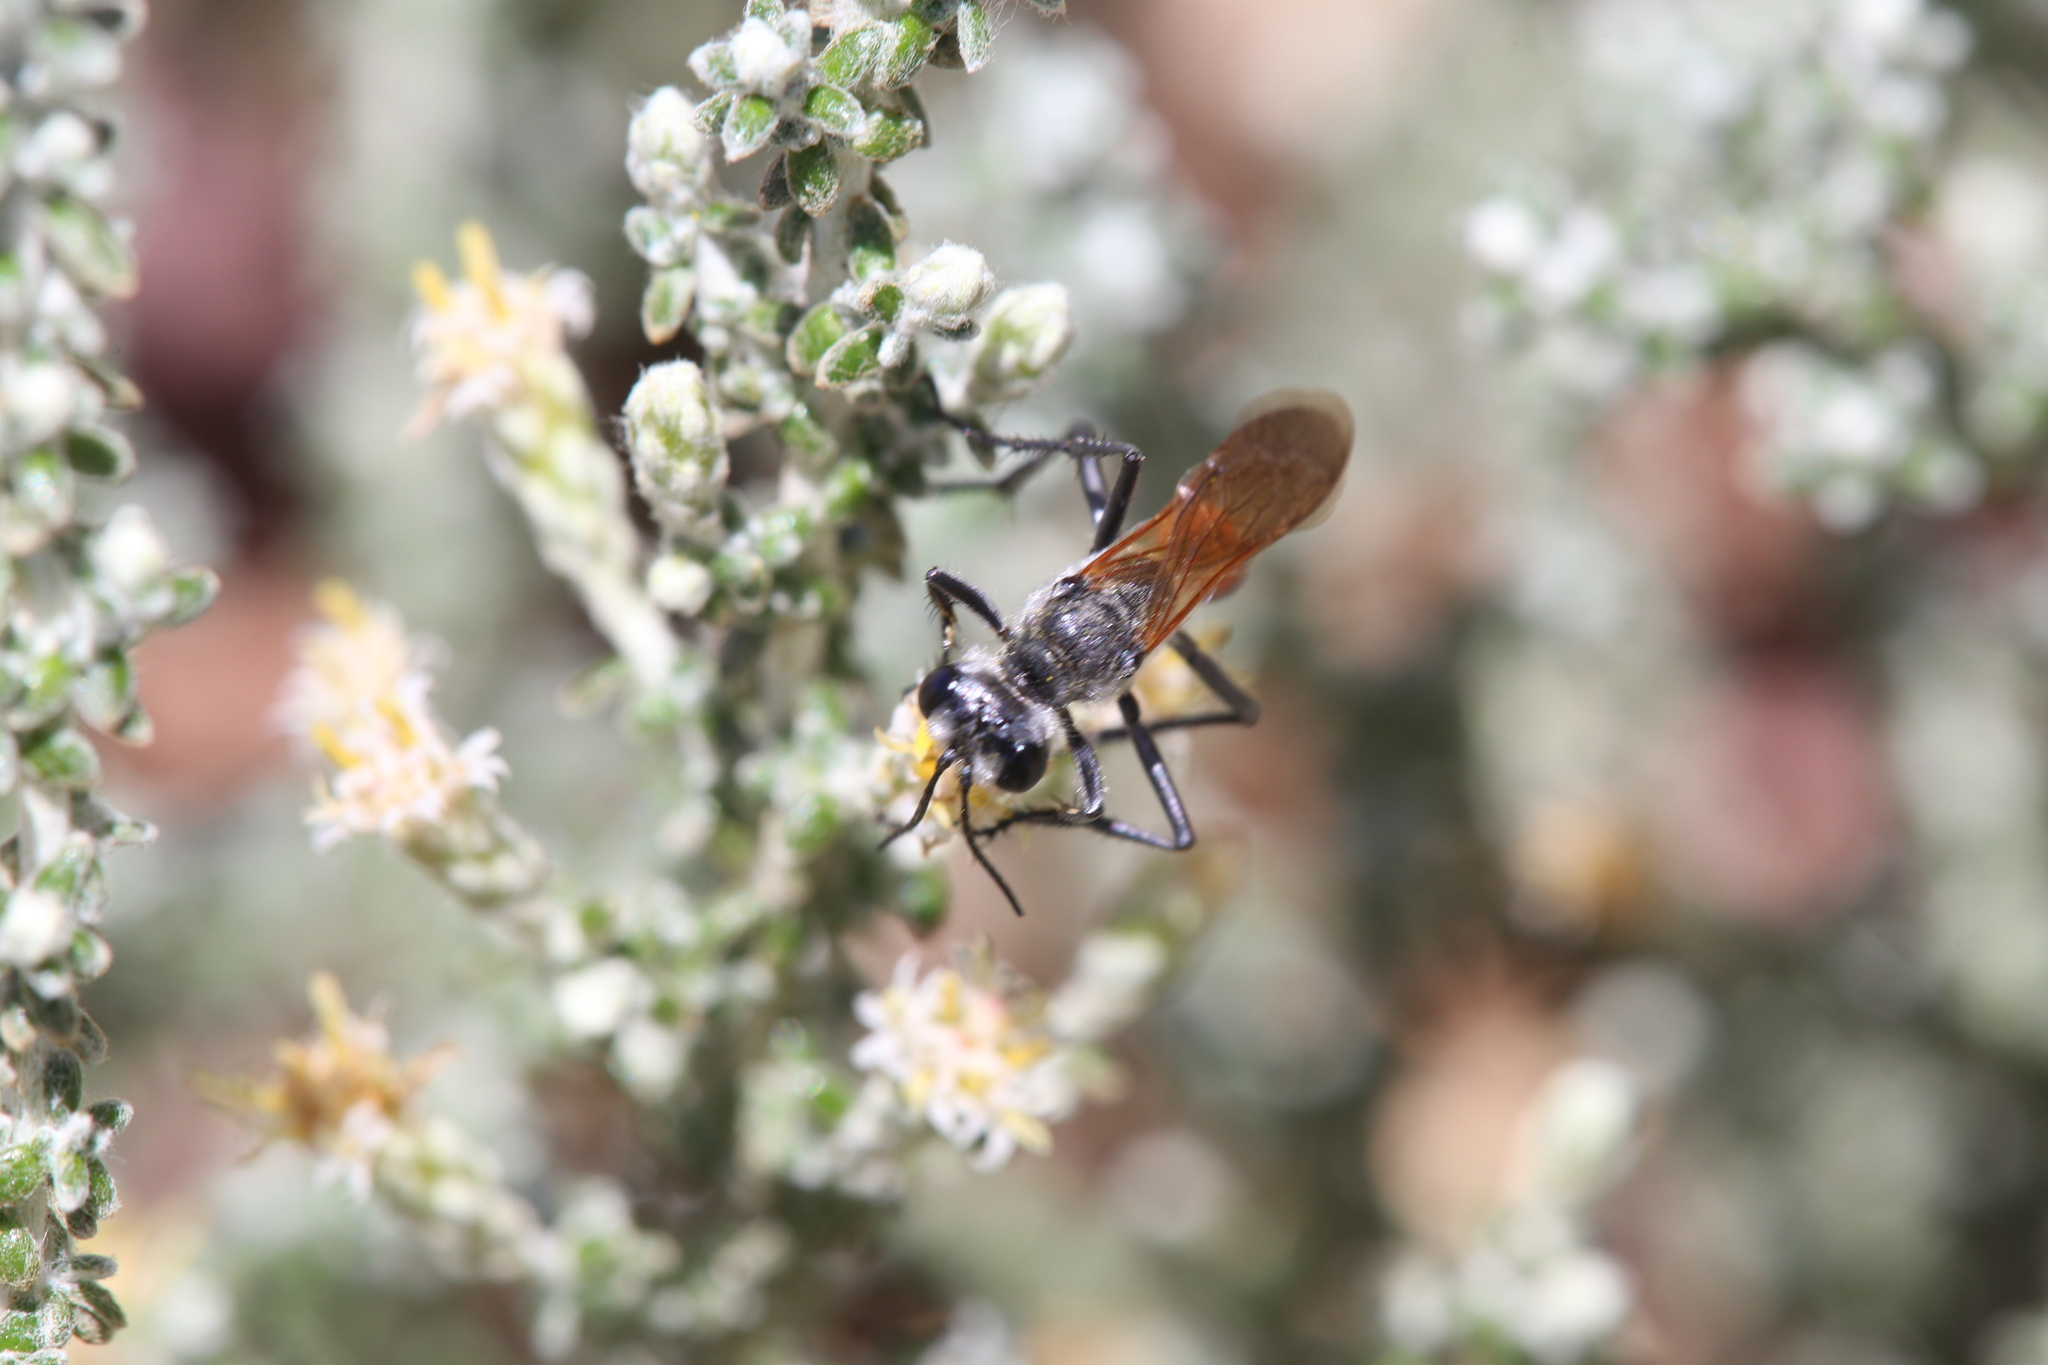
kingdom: Animalia
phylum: Arthropoda
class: Insecta
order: Hymenoptera
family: Sphecidae
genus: Podalonia
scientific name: Podalonia tydei
